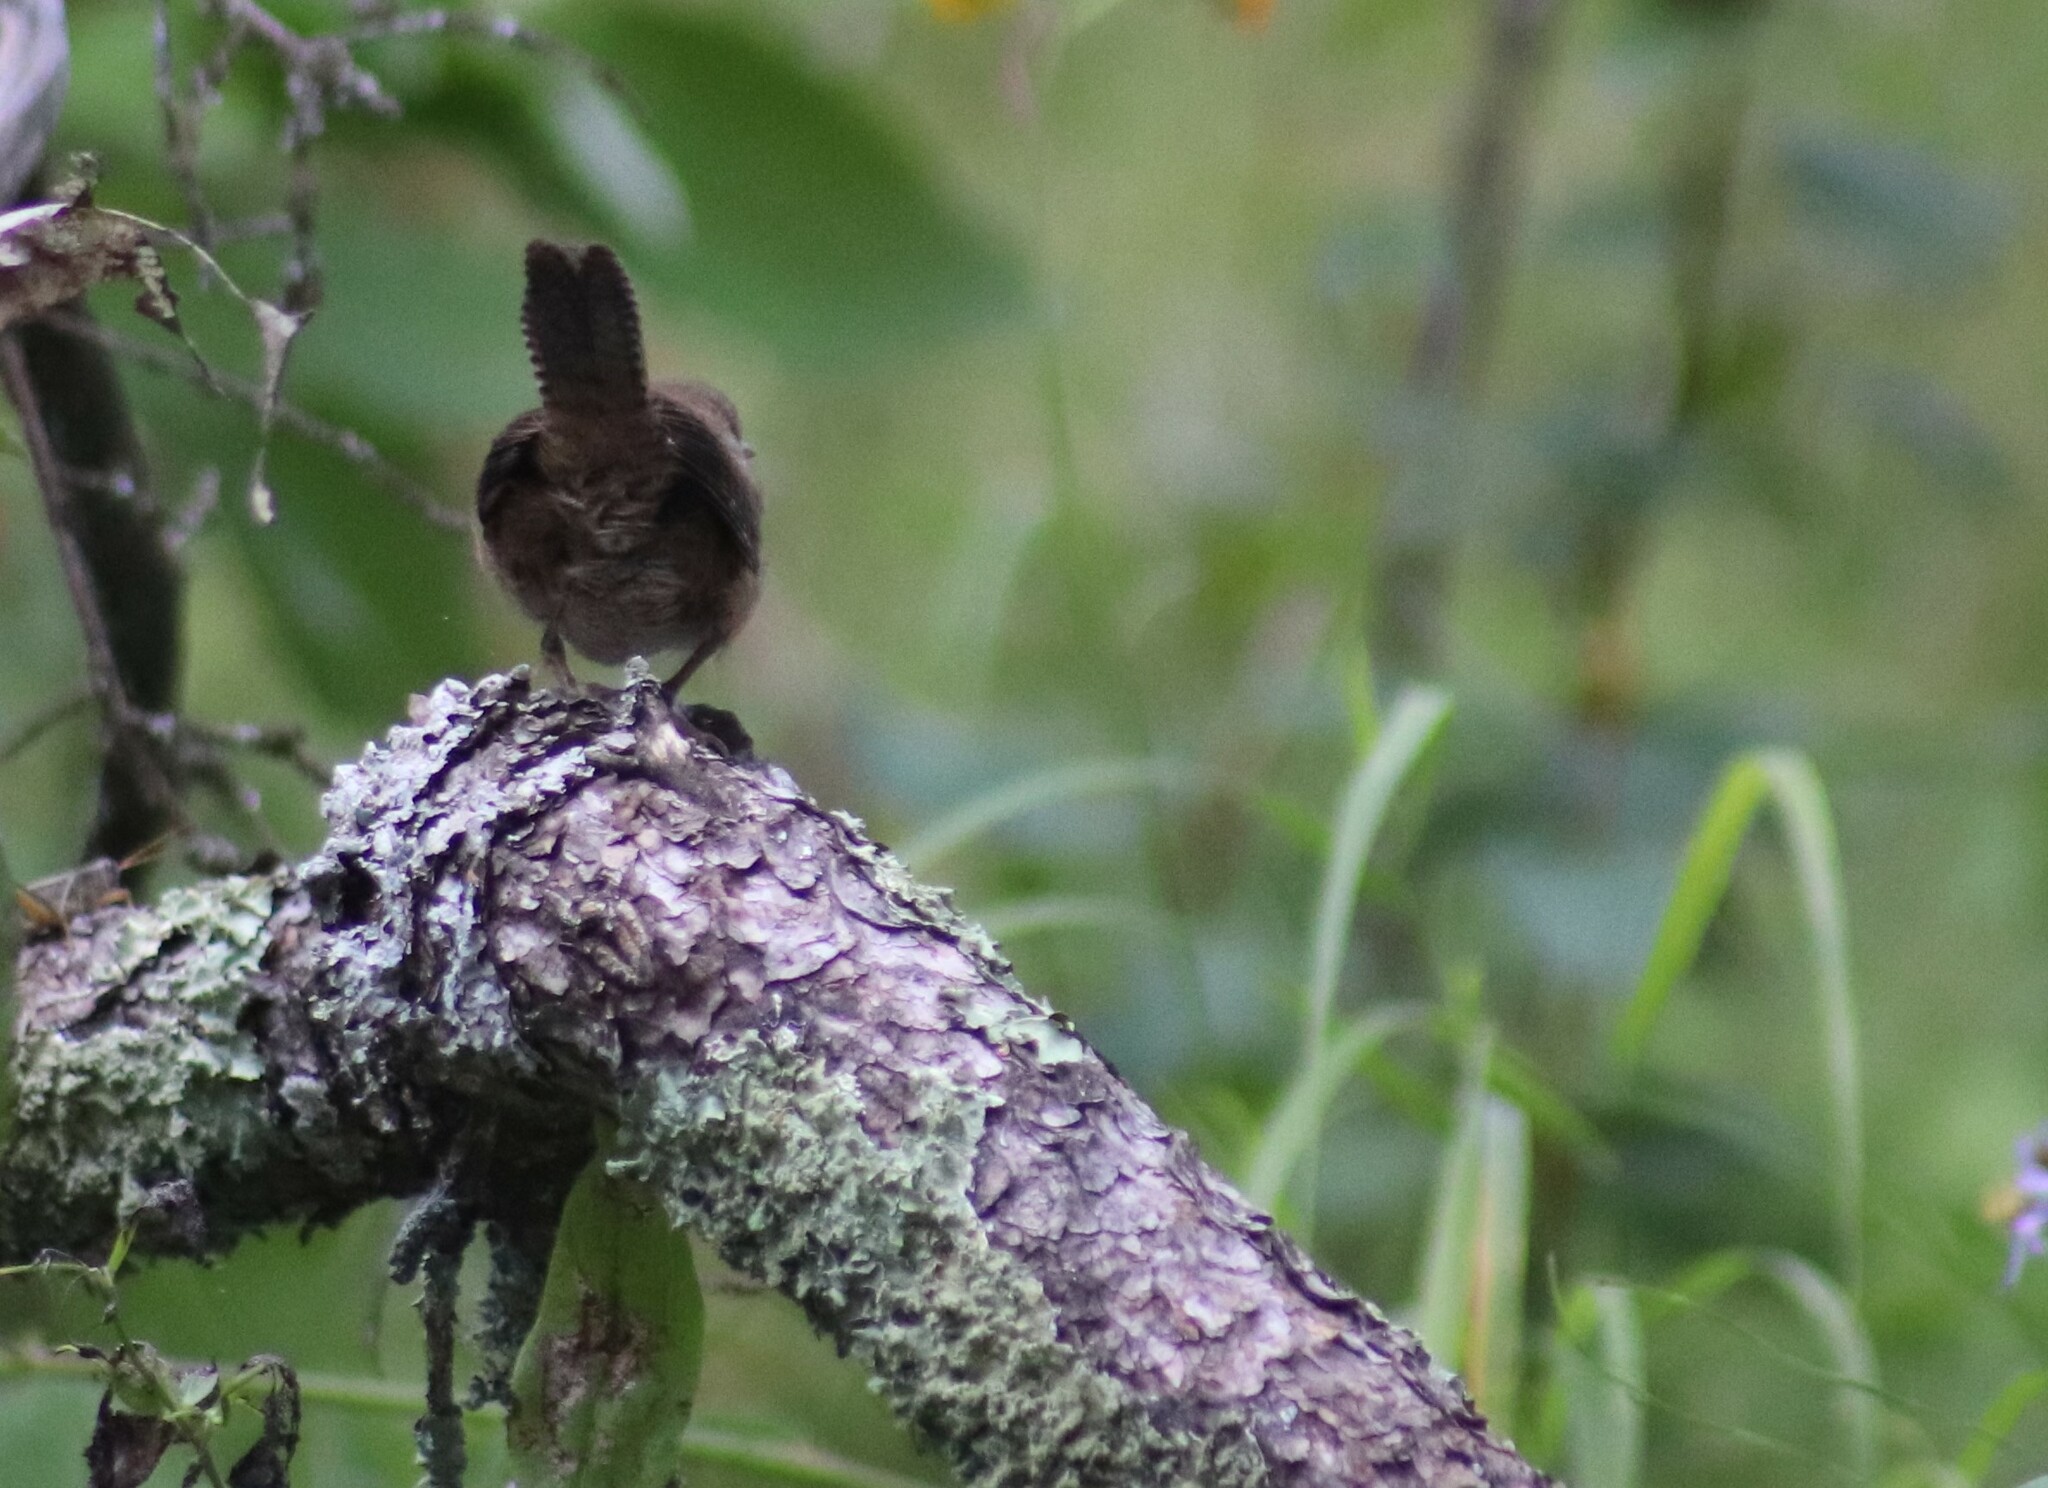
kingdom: Animalia
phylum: Chordata
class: Aves
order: Passeriformes
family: Troglodytidae
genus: Troglodytes
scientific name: Troglodytes aedon
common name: House wren
